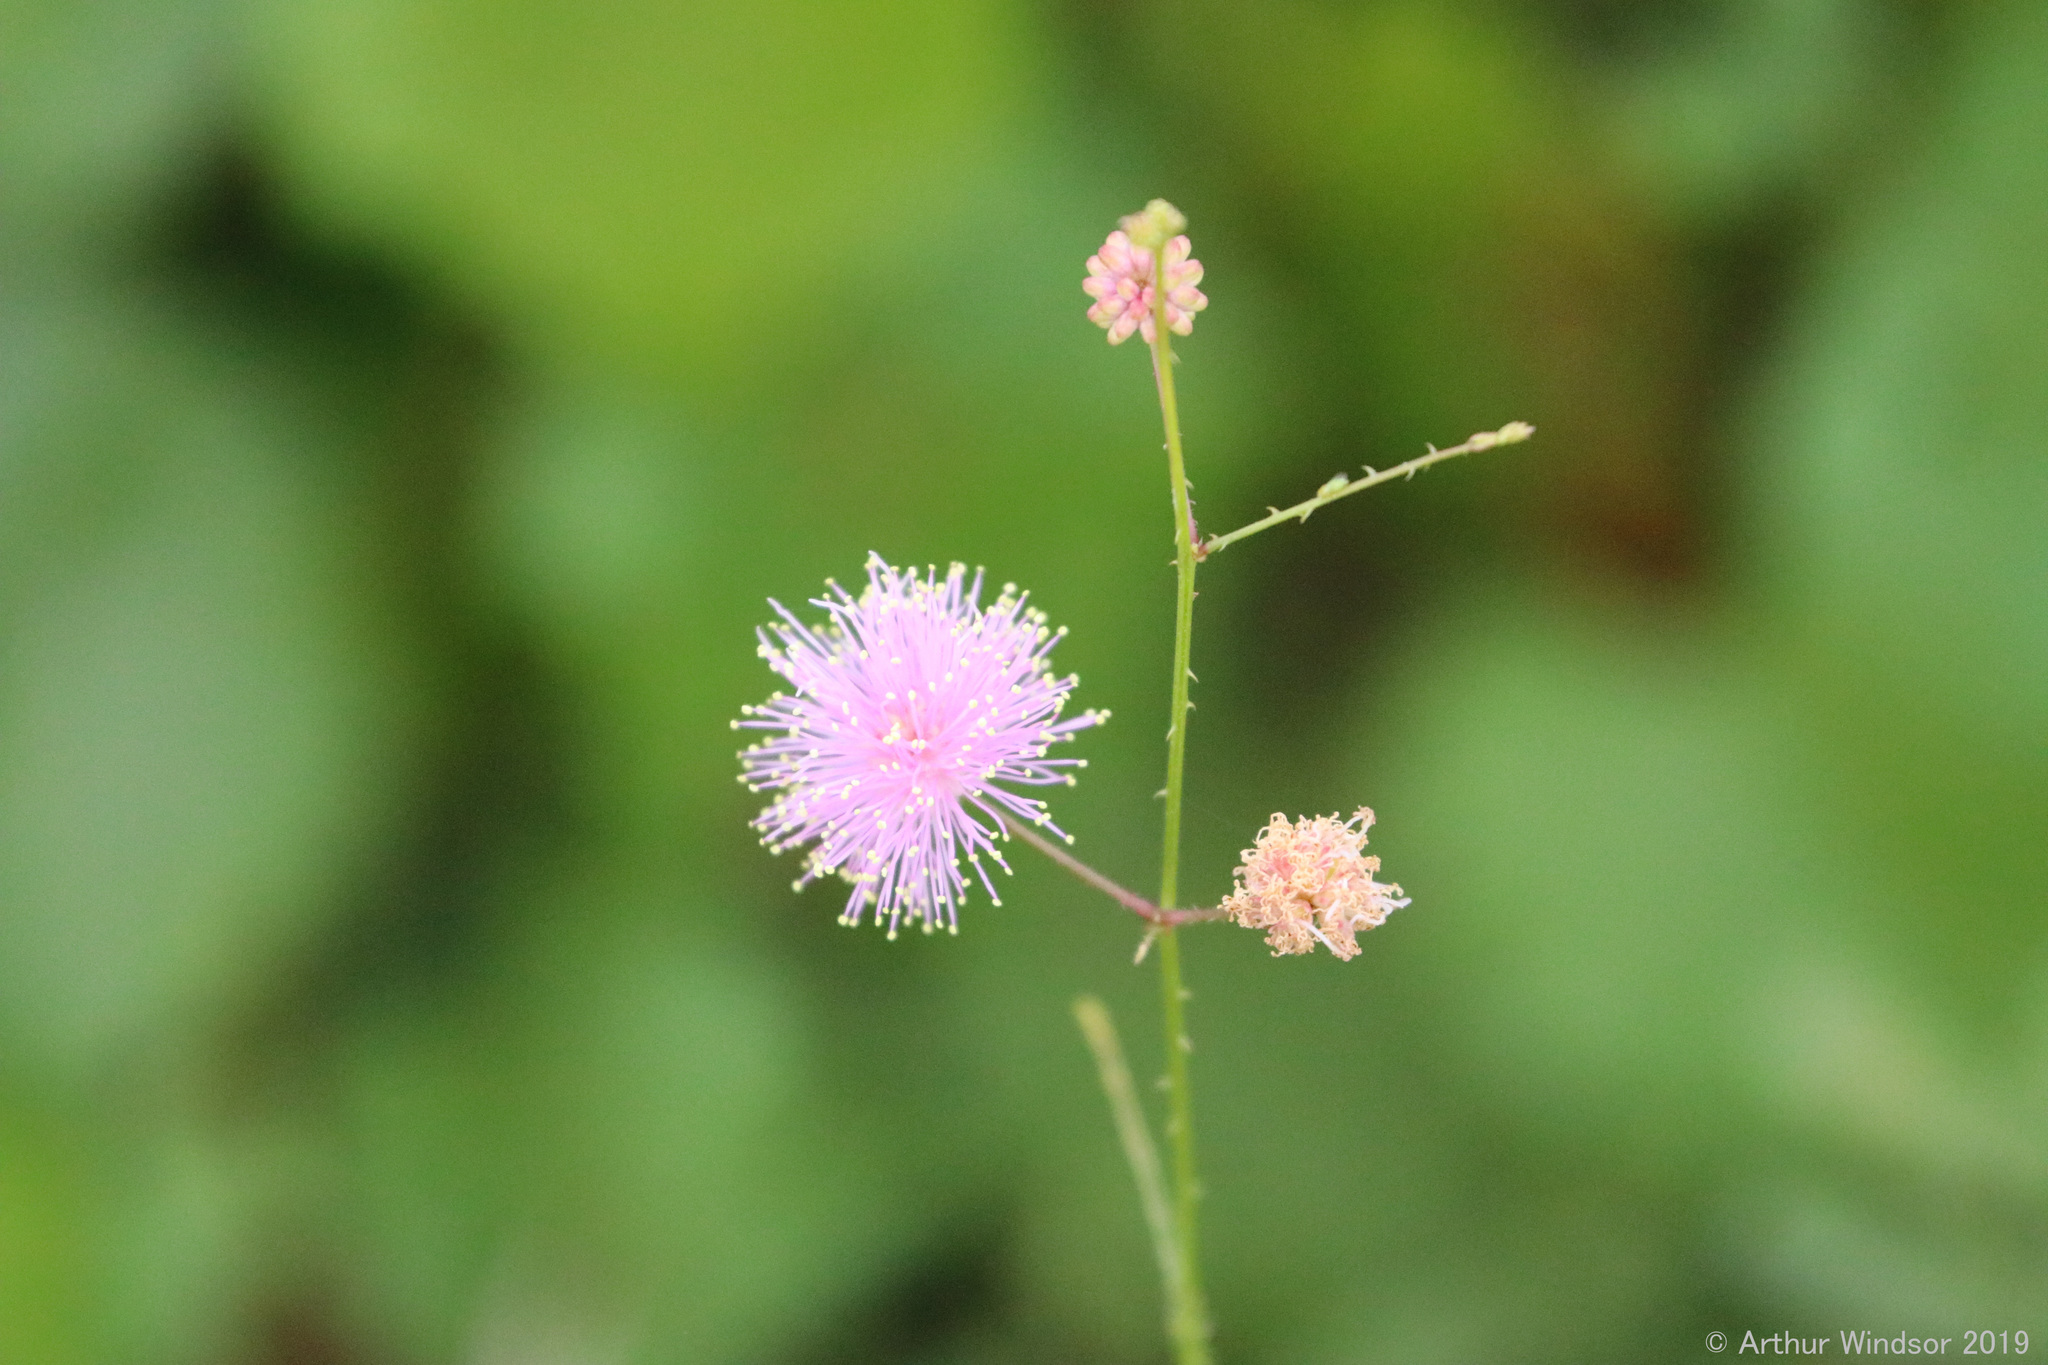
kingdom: Plantae
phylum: Tracheophyta
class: Magnoliopsida
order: Fabales
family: Fabaceae
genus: Mimosa
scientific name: Mimosa floridana
